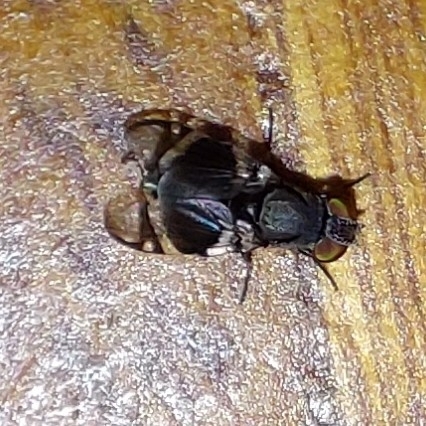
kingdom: Animalia
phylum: Arthropoda
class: Insecta
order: Diptera
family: Ulidiidae
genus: Euphara
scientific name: Euphara caerulea
